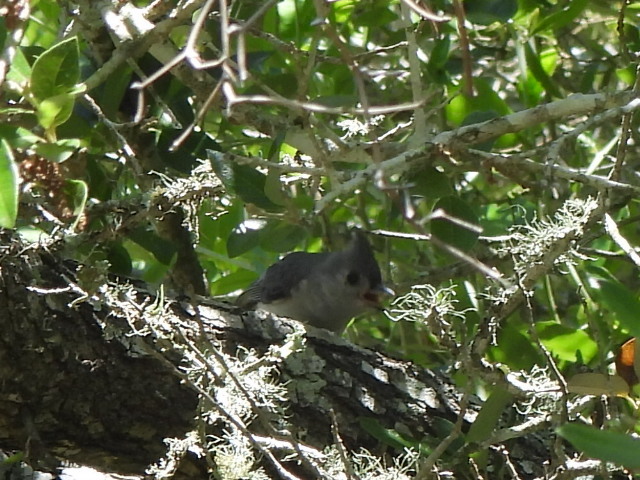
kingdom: Animalia
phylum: Chordata
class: Aves
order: Passeriformes
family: Paridae
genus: Baeolophus
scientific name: Baeolophus bicolor
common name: Tufted titmouse
